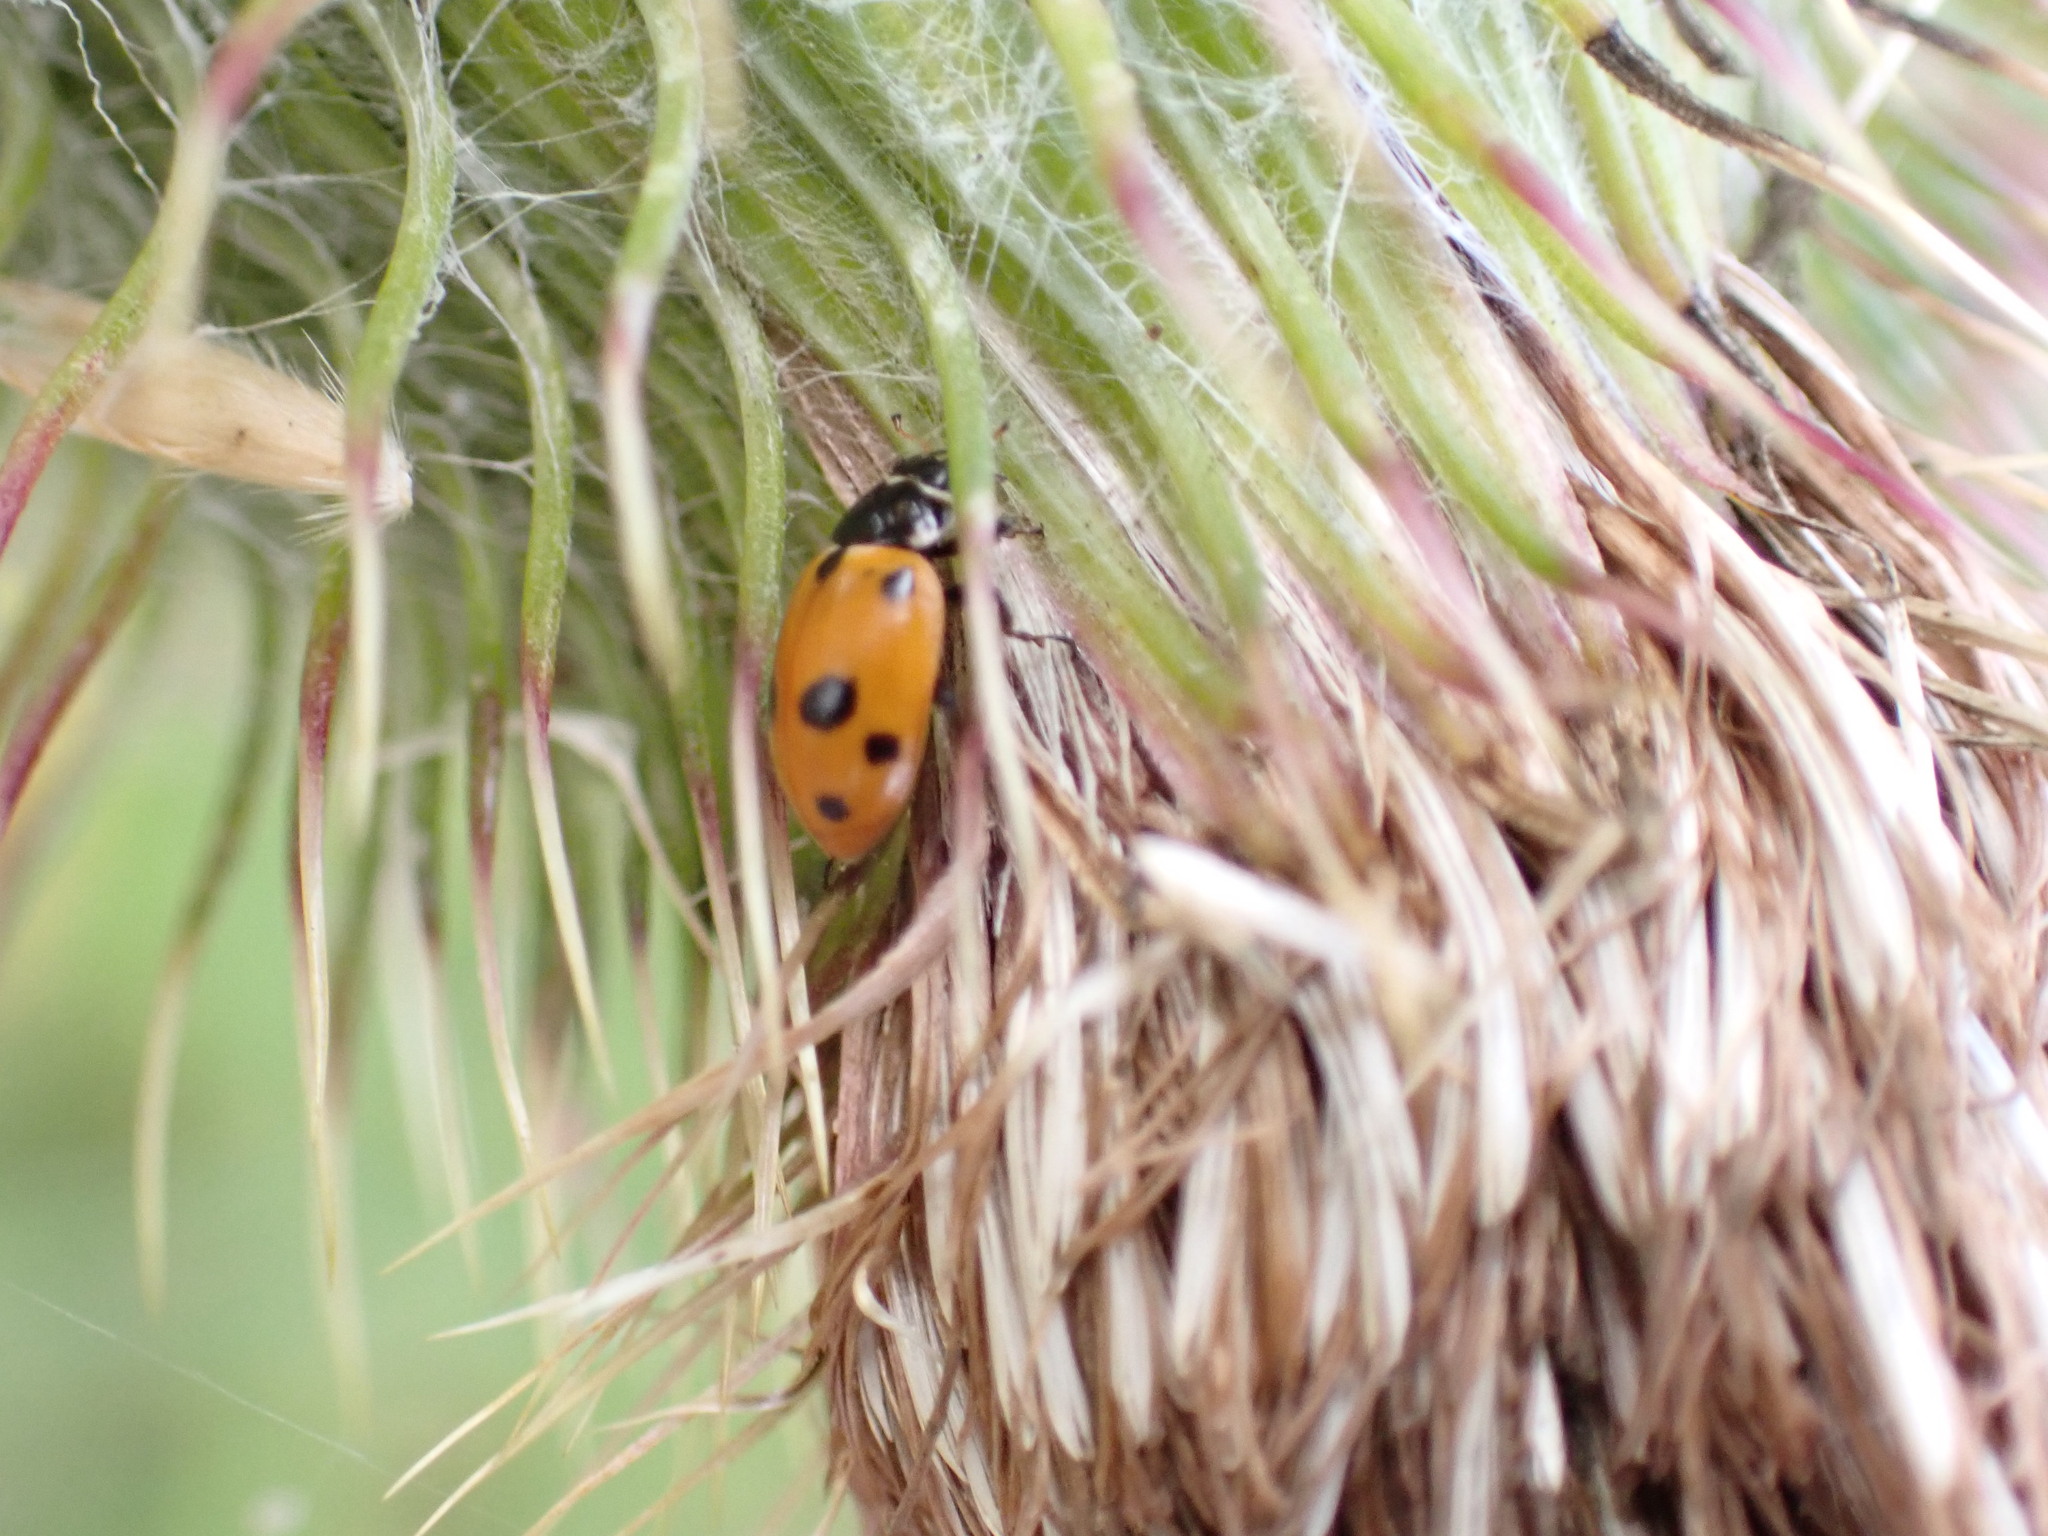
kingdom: Animalia
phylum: Arthropoda
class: Insecta
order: Coleoptera
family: Coccinellidae
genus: Hippodamia
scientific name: Hippodamia variegata
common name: Ladybird beetle
